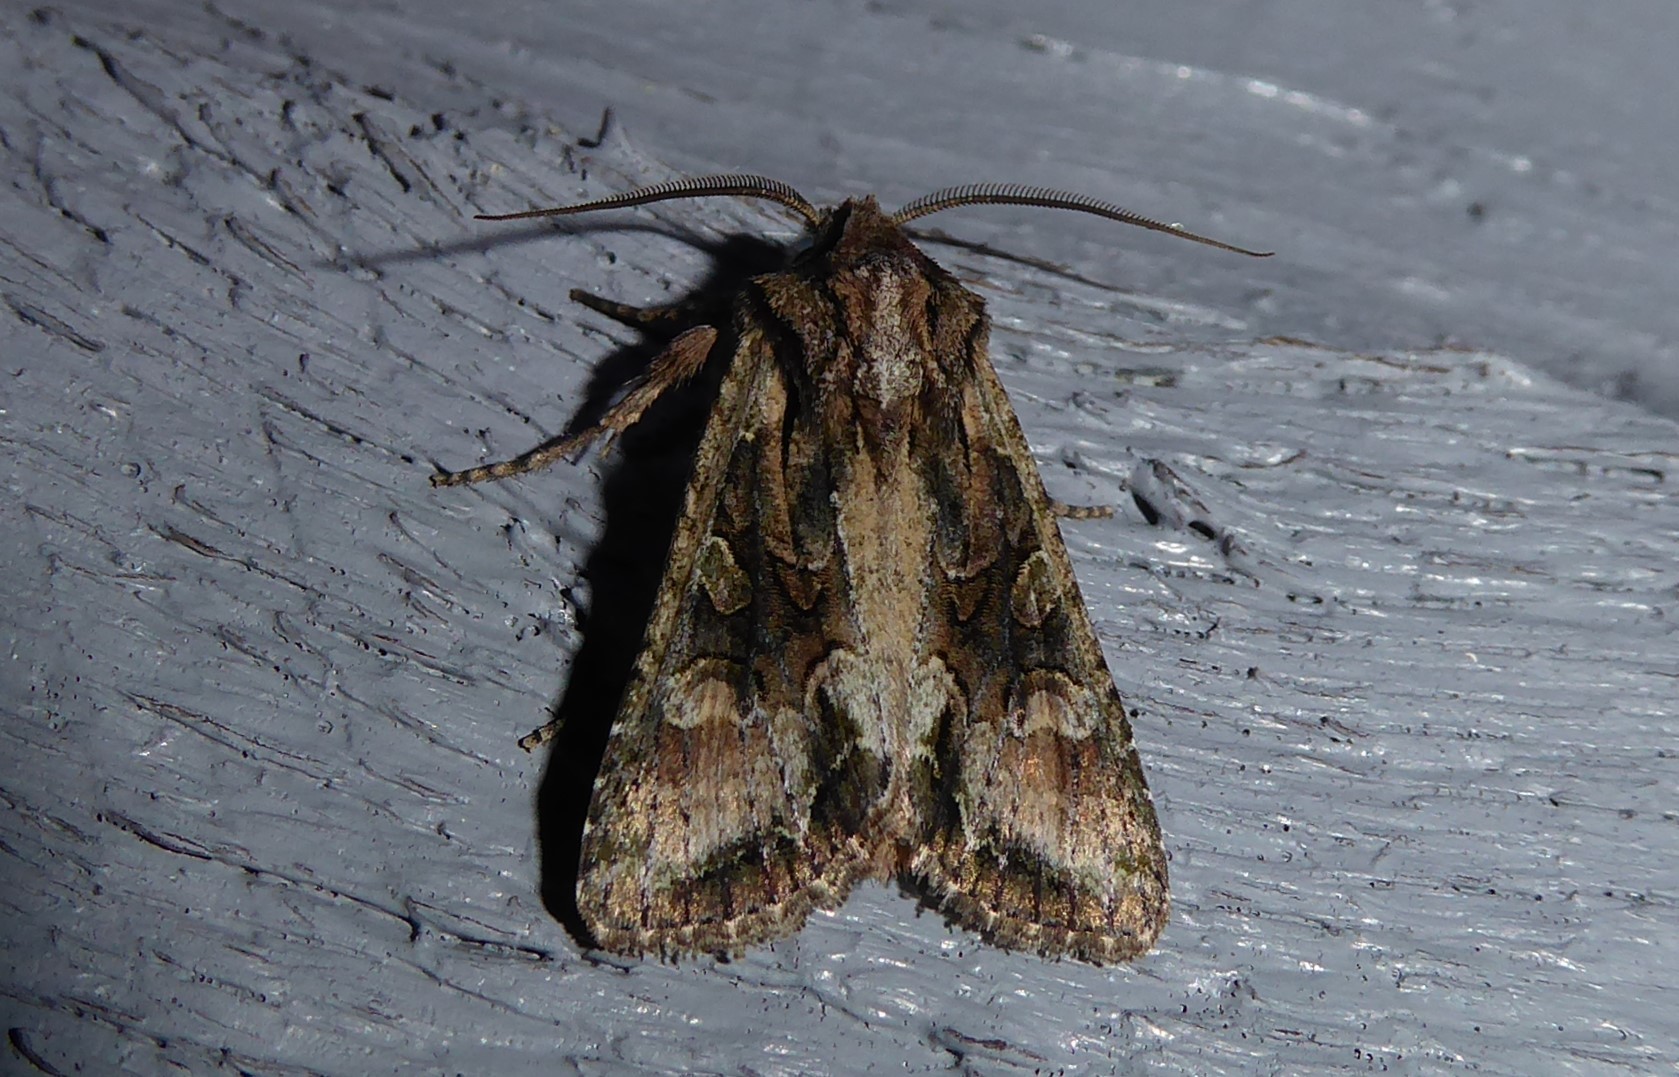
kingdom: Animalia
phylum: Arthropoda
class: Insecta
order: Lepidoptera
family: Noctuidae
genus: Ichneutica
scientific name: Ichneutica mutans
